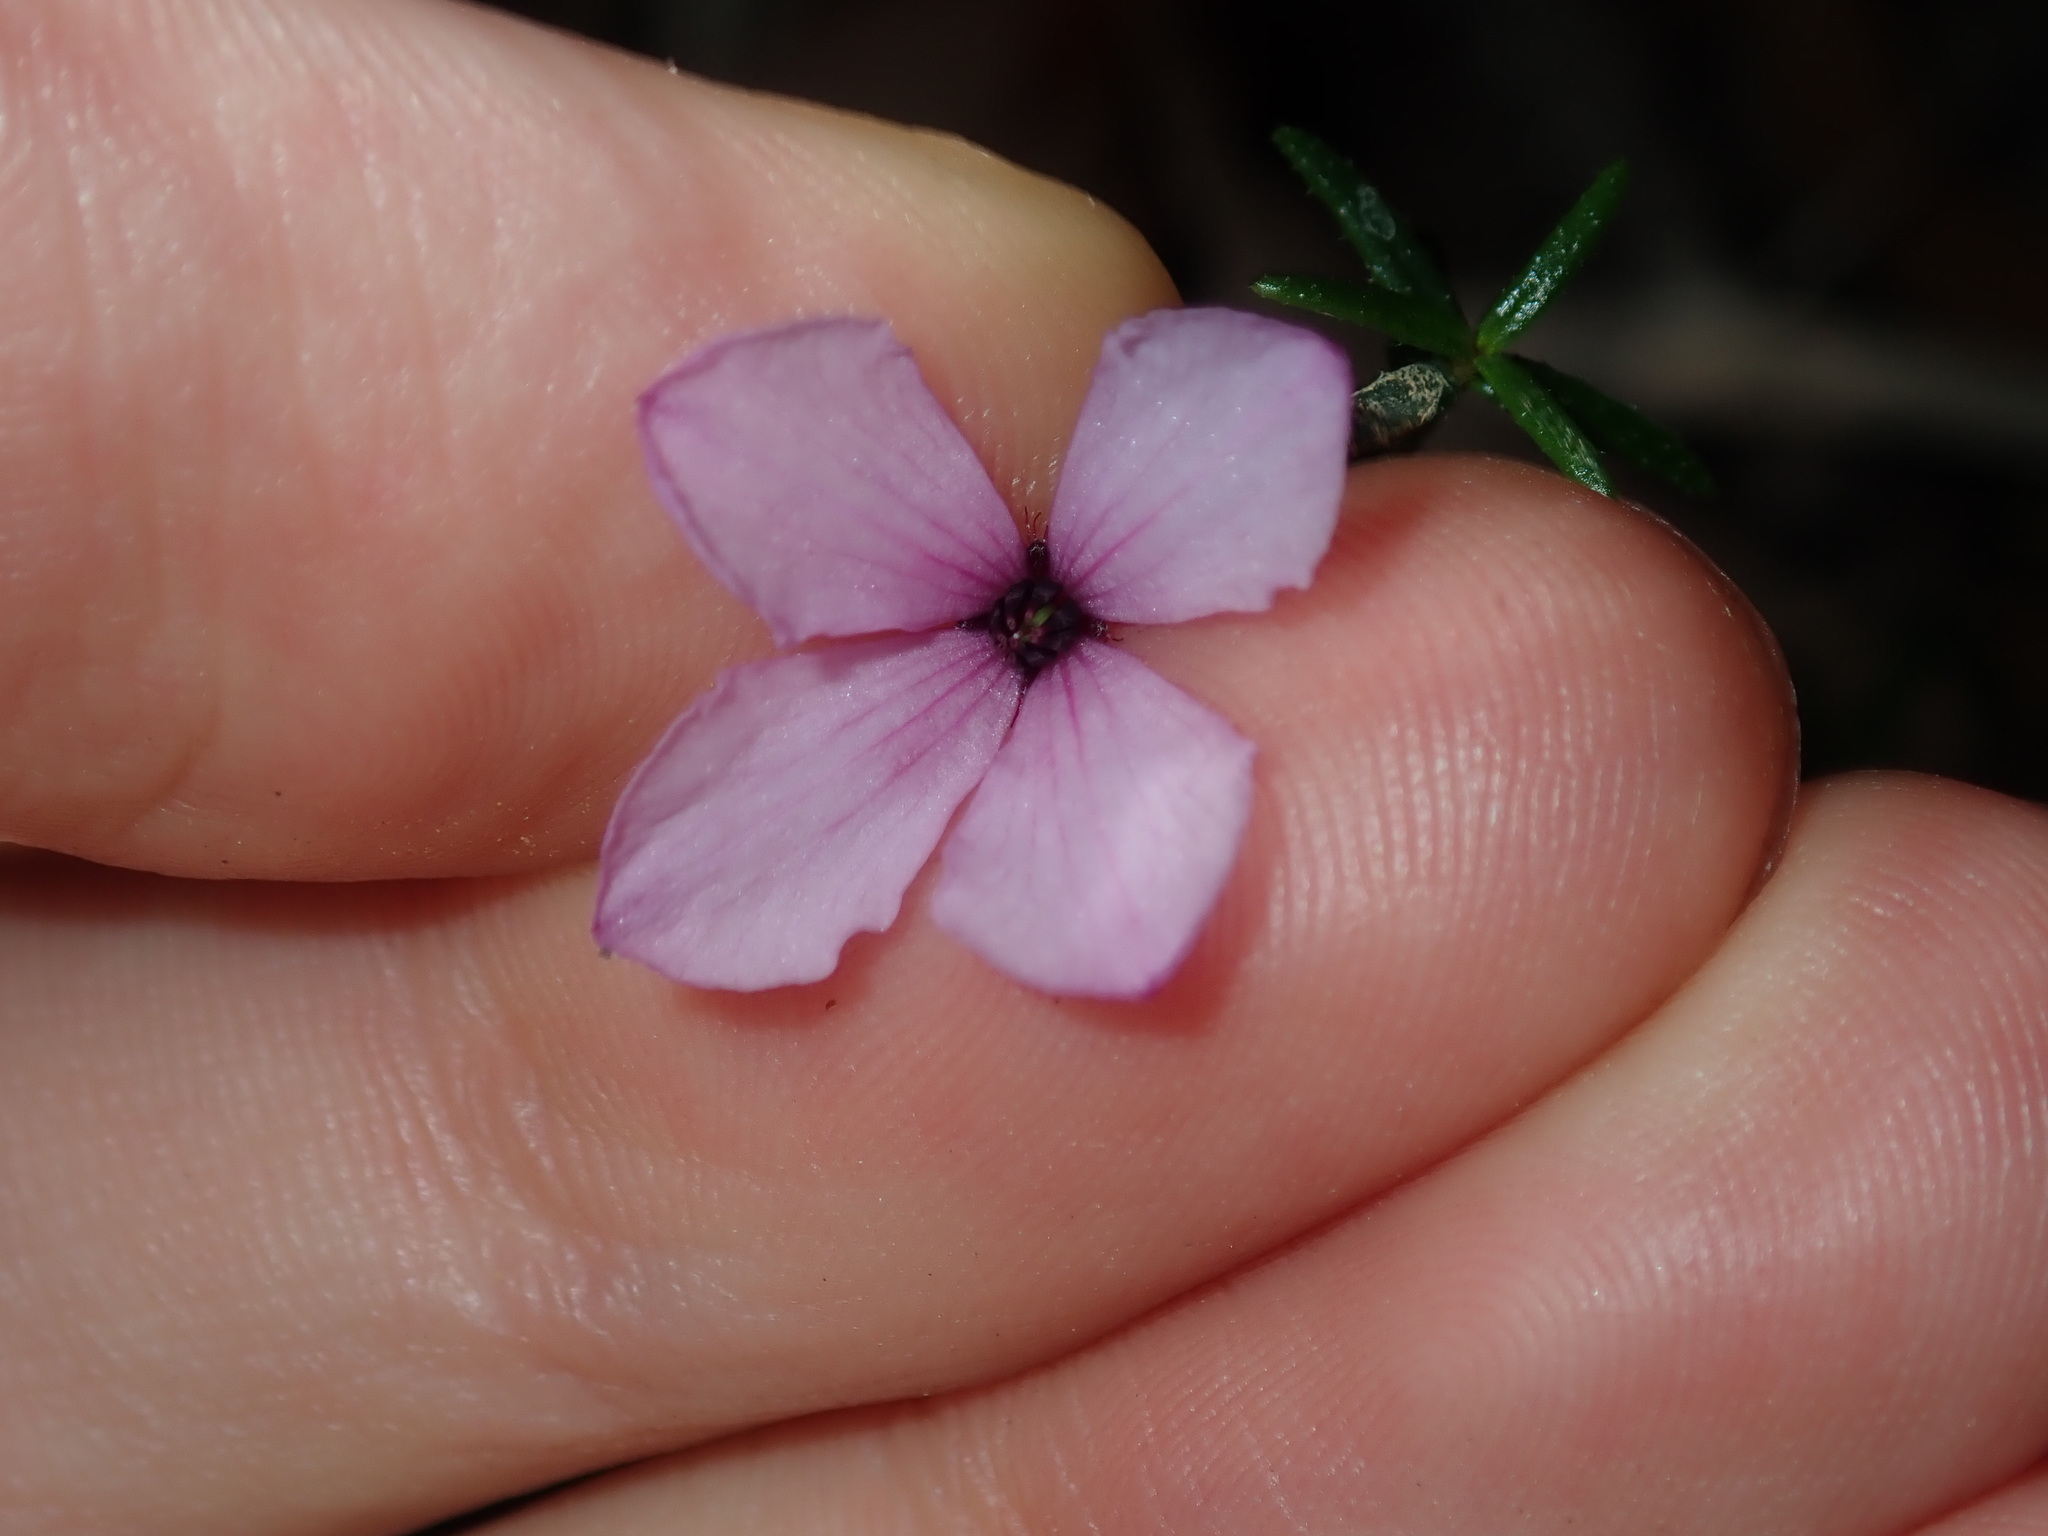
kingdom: Plantae
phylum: Tracheophyta
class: Magnoliopsida
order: Oxalidales
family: Elaeocarpaceae
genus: Tetratheca
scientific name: Tetratheca ericifolia
